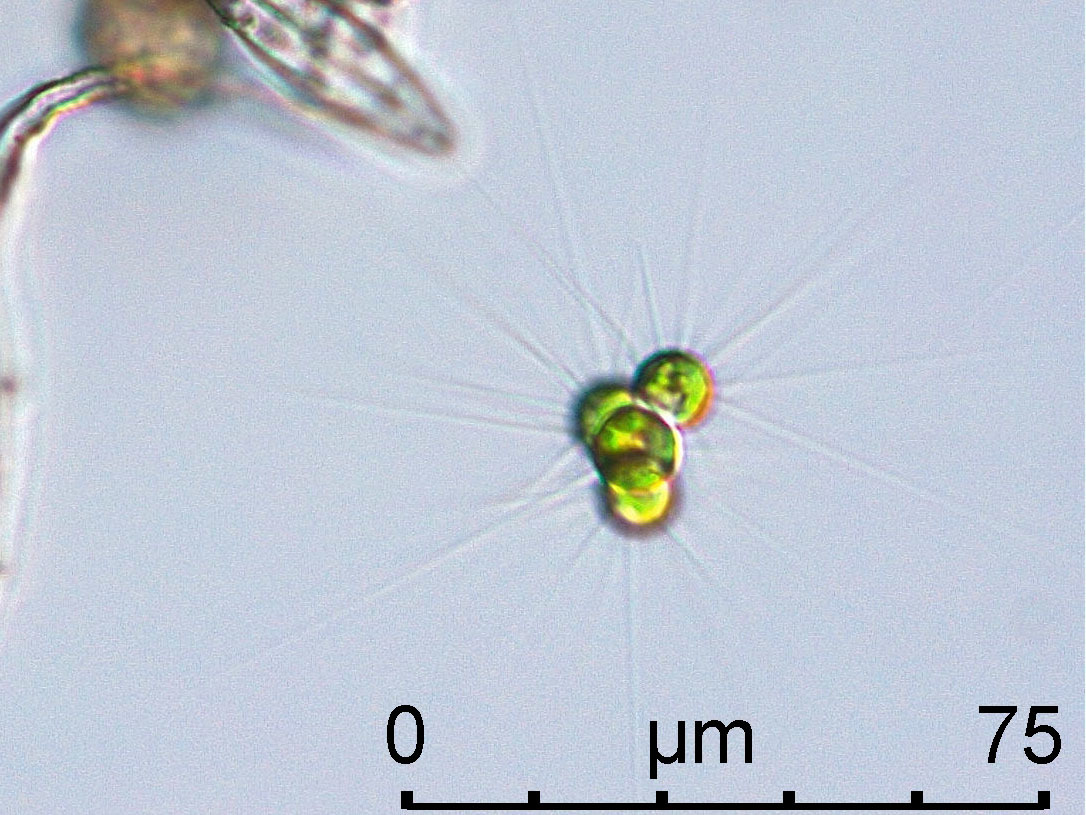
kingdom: Plantae
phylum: Chlorophyta
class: Trebouxiophyceae
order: Chlorellales
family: Chlorellaceae
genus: Micractinium
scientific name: Micractinium pusillum
